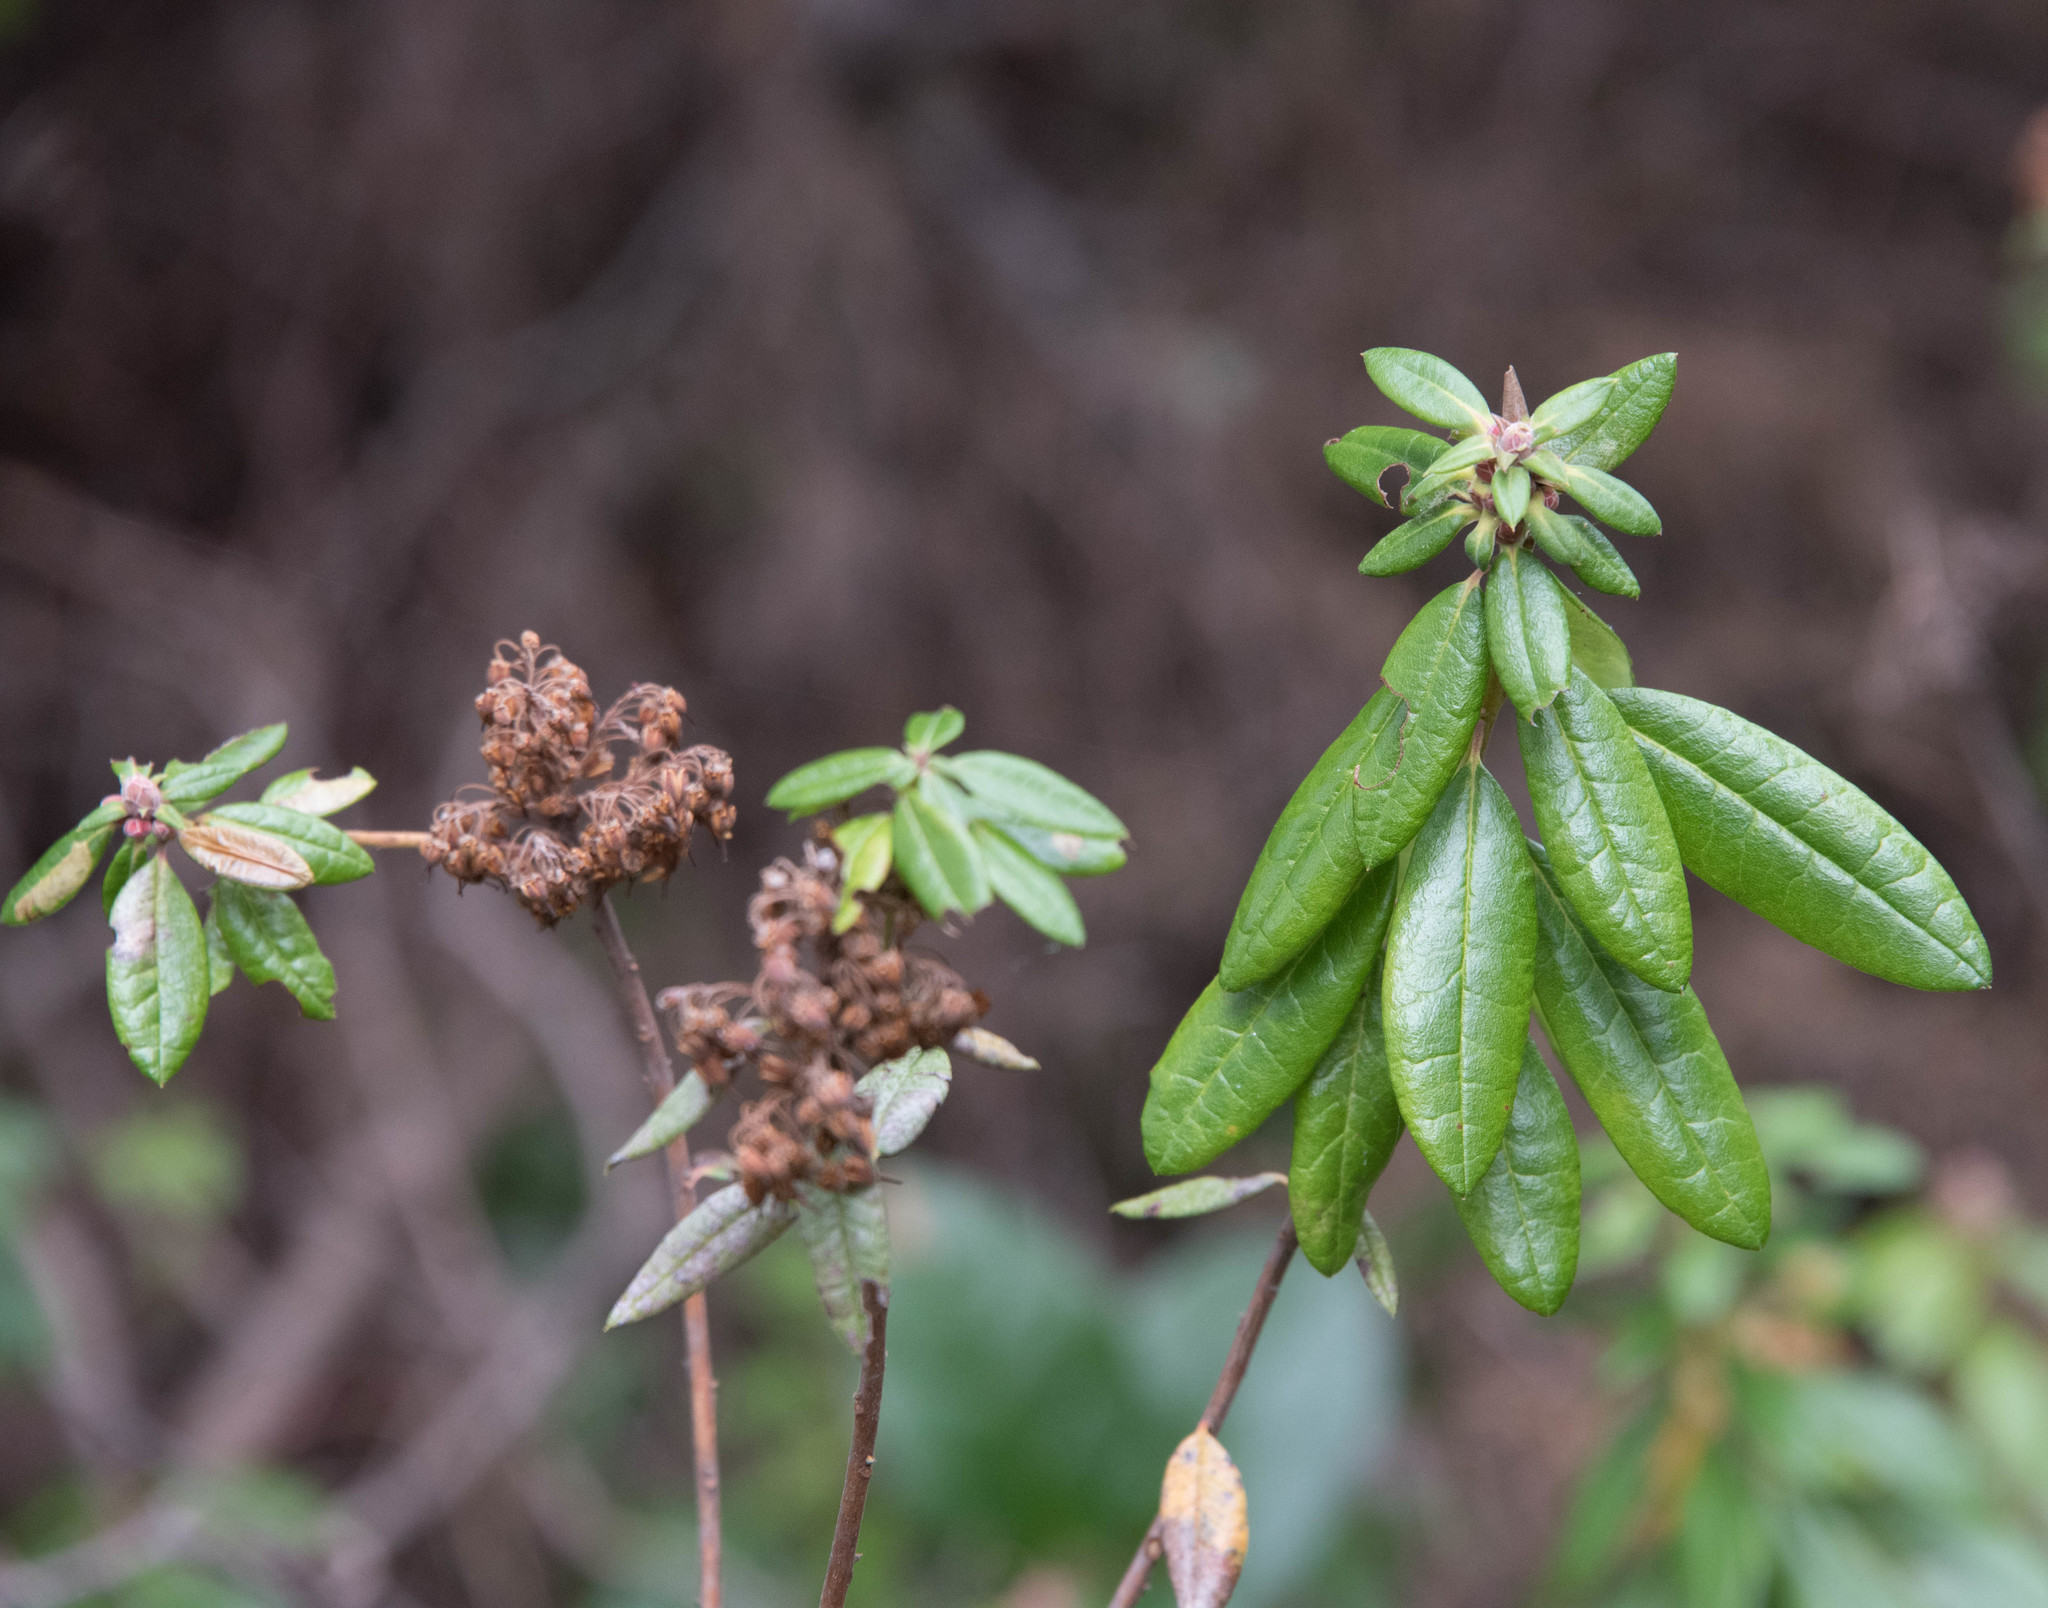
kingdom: Plantae
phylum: Tracheophyta
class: Magnoliopsida
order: Ericales
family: Ericaceae
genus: Rhododendron
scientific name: Rhododendron columbianum
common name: Western labrador tea
